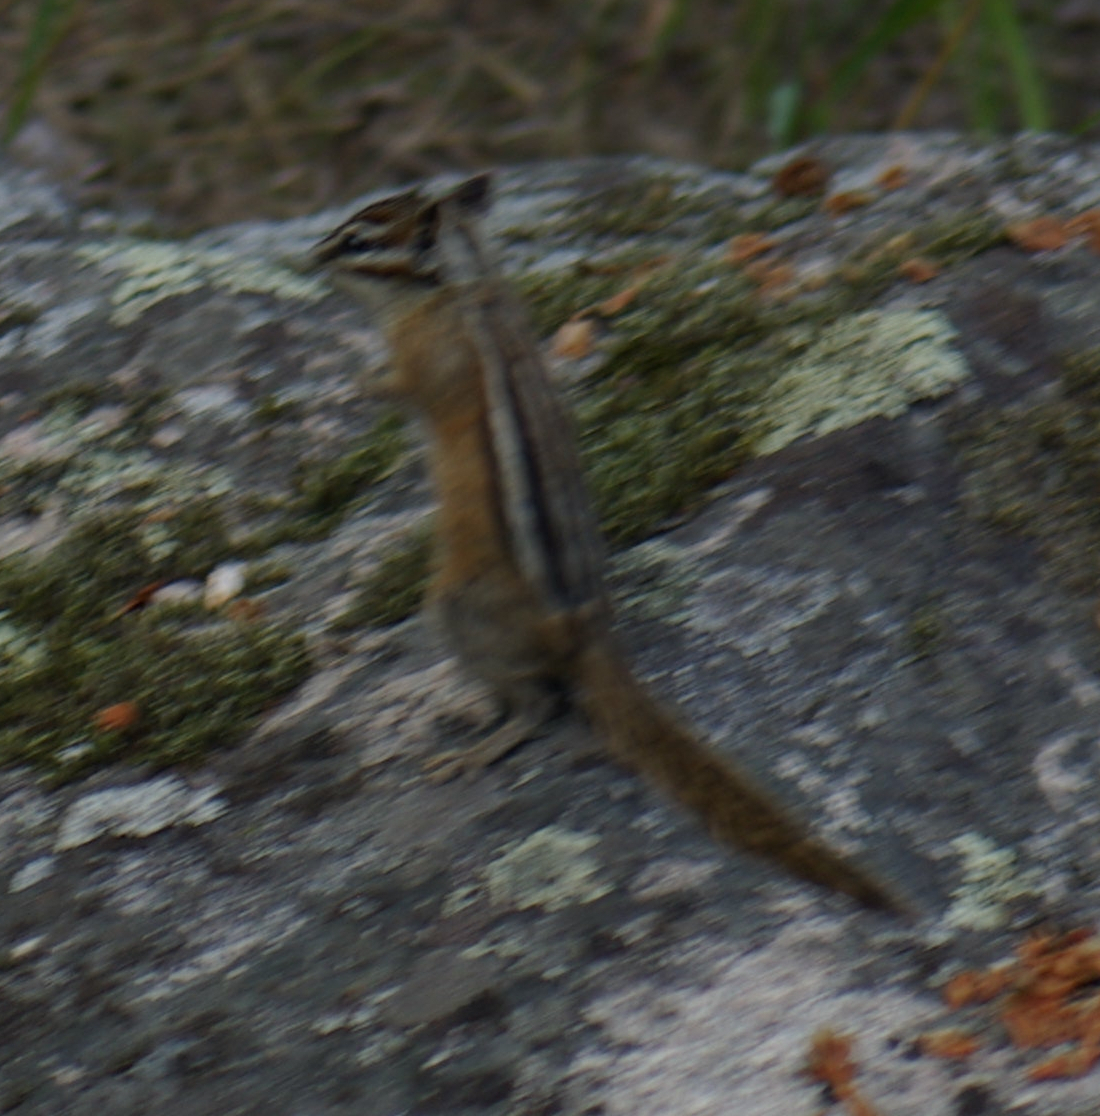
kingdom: Animalia
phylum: Chordata
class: Mammalia
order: Rodentia
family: Sciuridae
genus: Tamias
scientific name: Tamias minimus
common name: Least chipmunk
